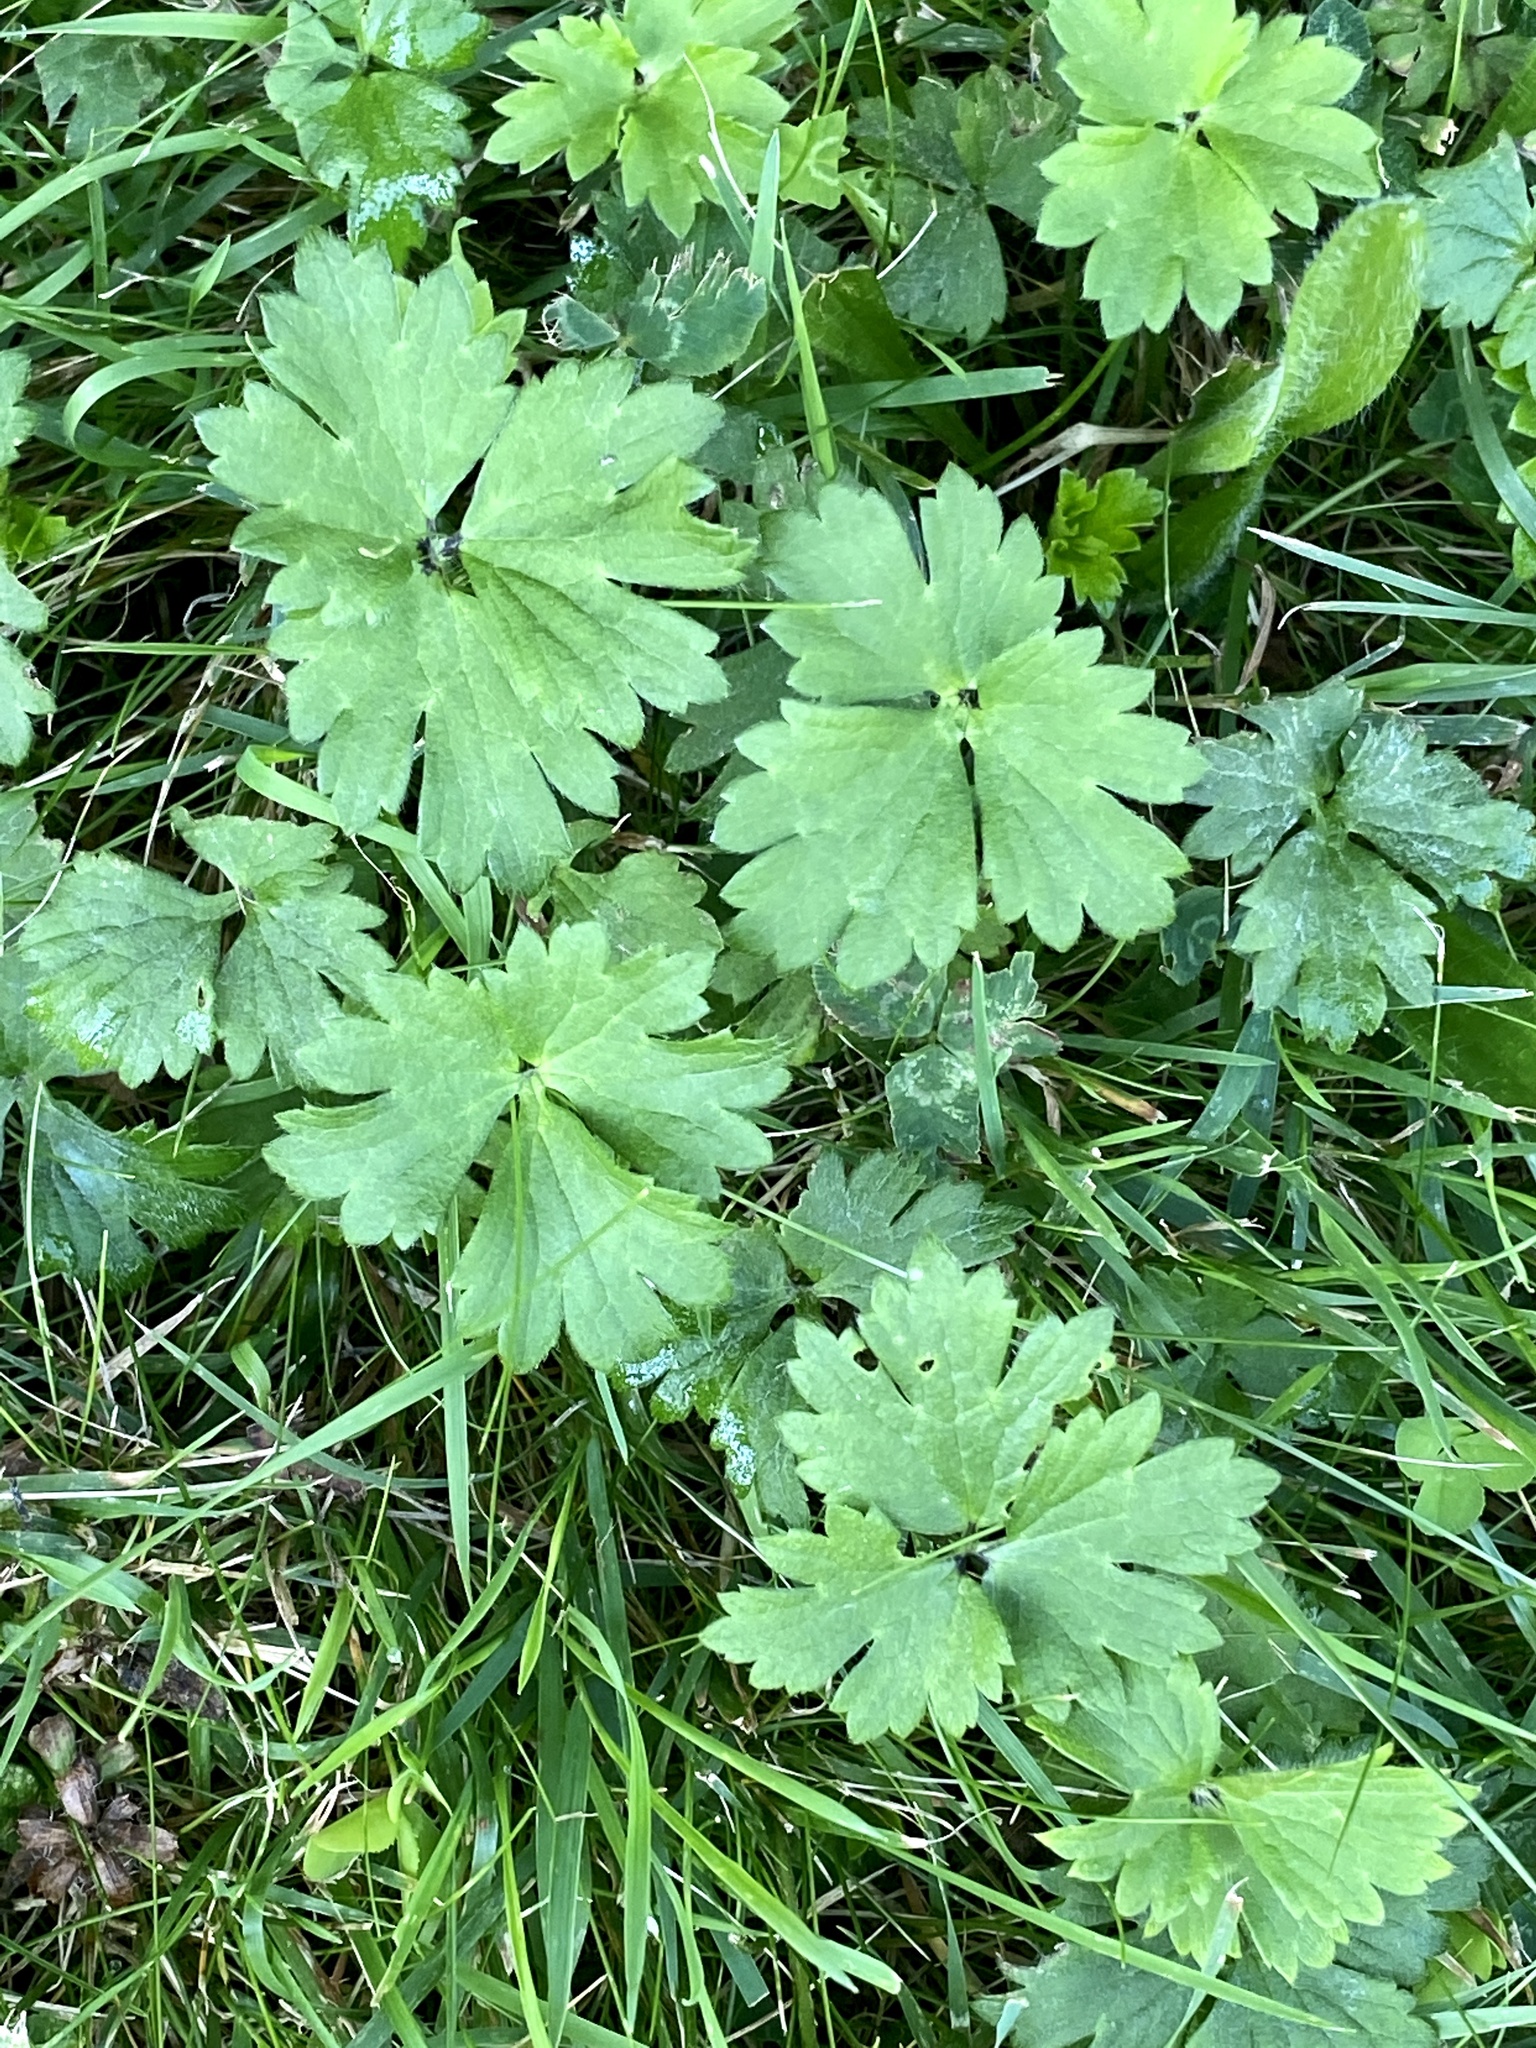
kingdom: Plantae
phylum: Tracheophyta
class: Magnoliopsida
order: Ranunculales
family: Ranunculaceae
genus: Ranunculus
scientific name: Ranunculus repens
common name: Creeping buttercup
